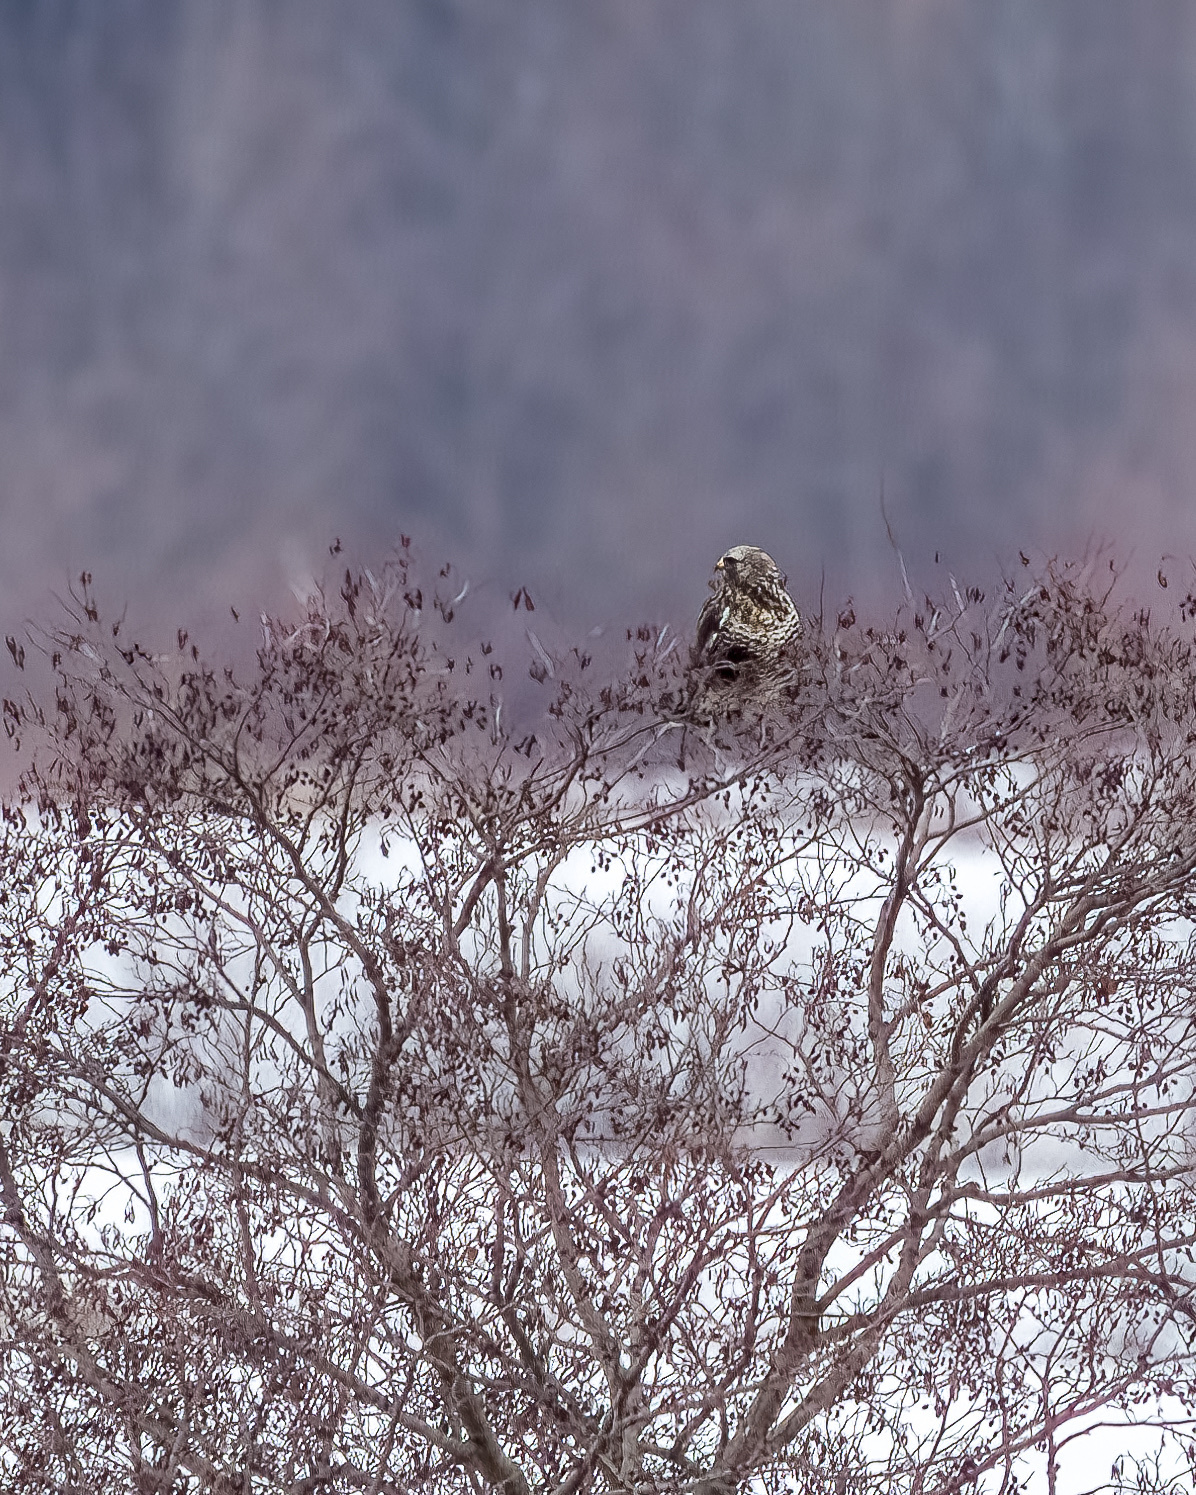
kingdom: Animalia
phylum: Chordata
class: Aves
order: Accipitriformes
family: Accipitridae
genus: Buteo
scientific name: Buteo lagopus
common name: Rough-legged buzzard
